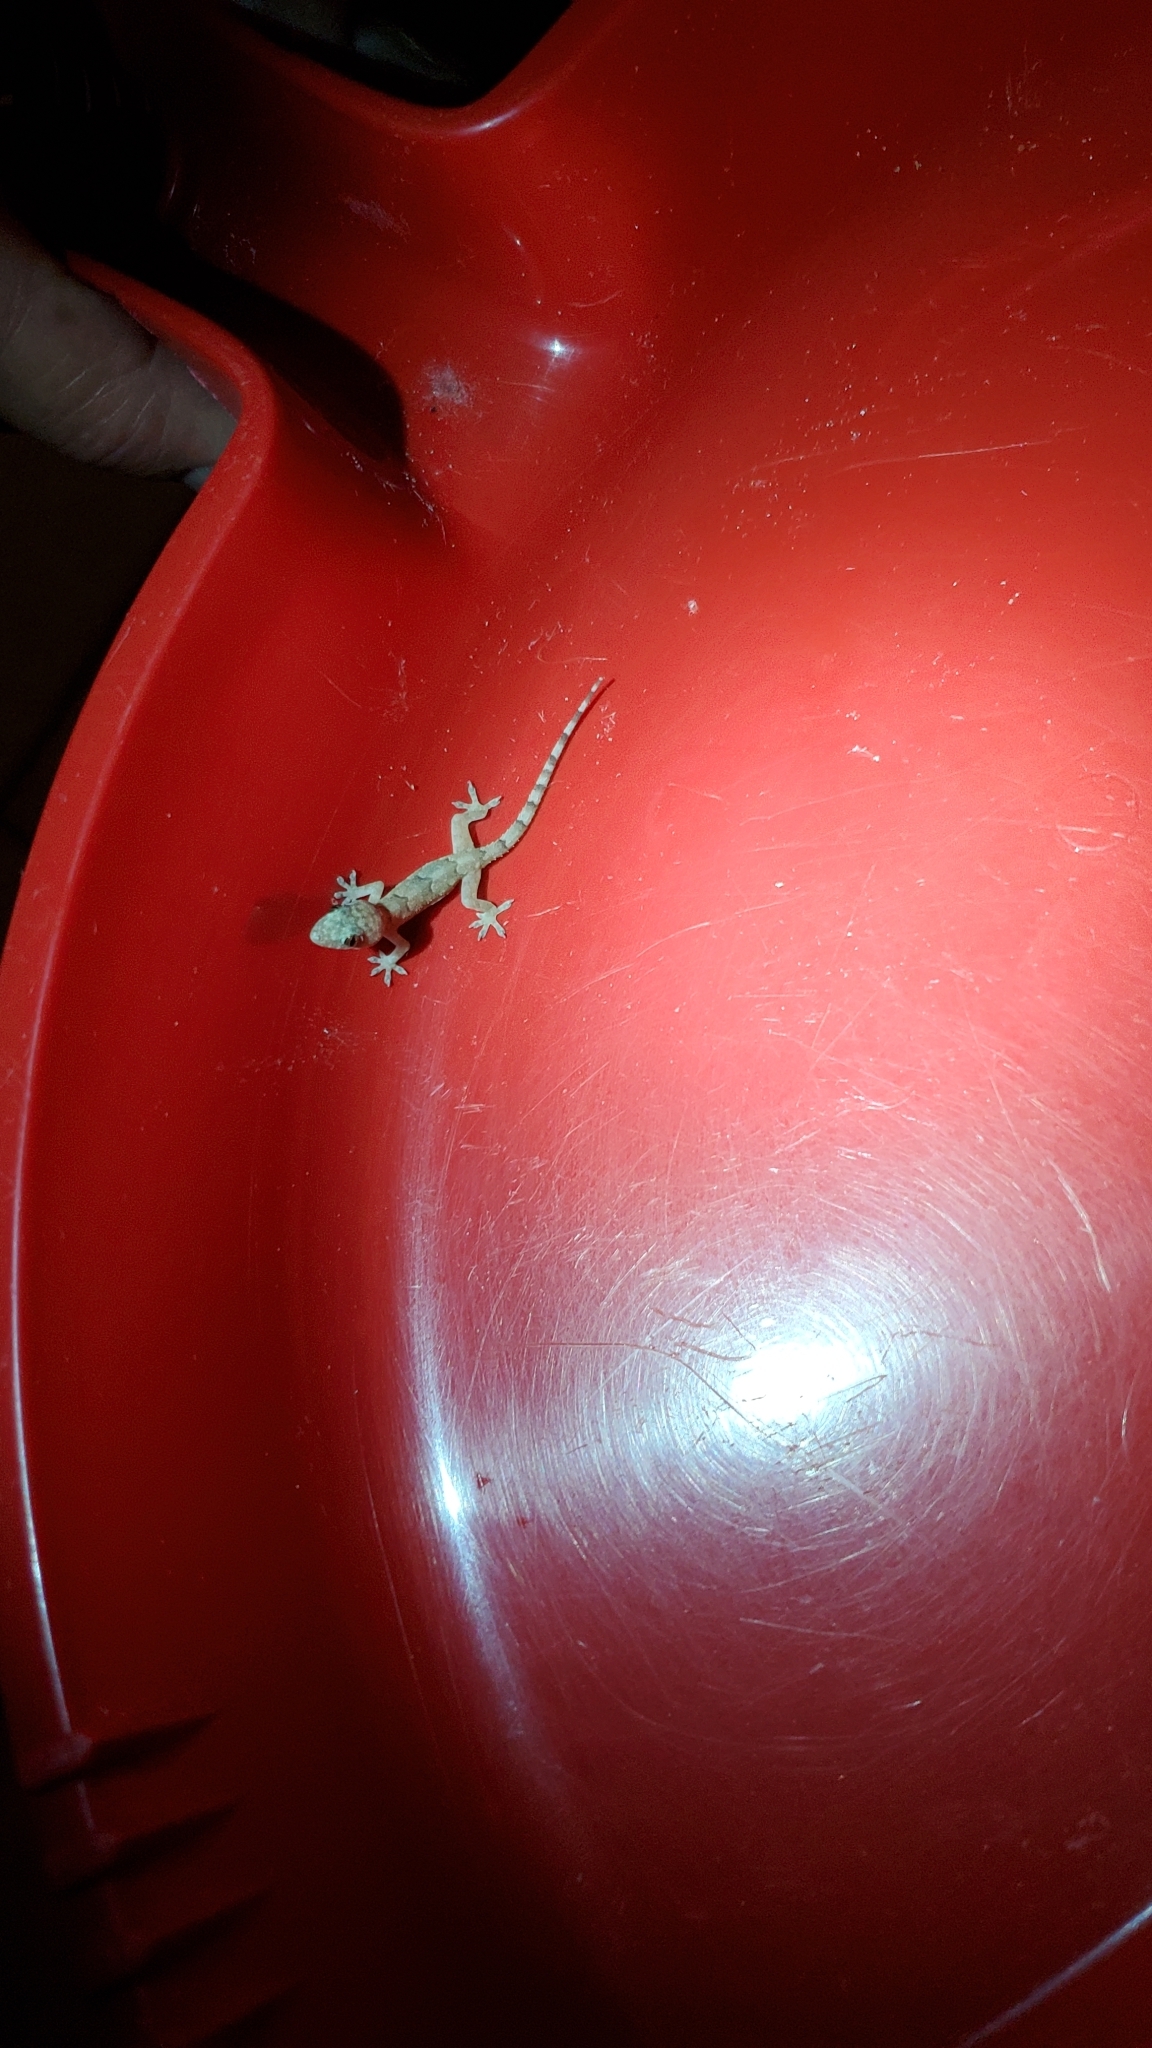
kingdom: Animalia
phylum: Chordata
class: Squamata
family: Gekkonidae
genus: Hemidactylus
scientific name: Hemidactylus mabouia
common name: House gecko
